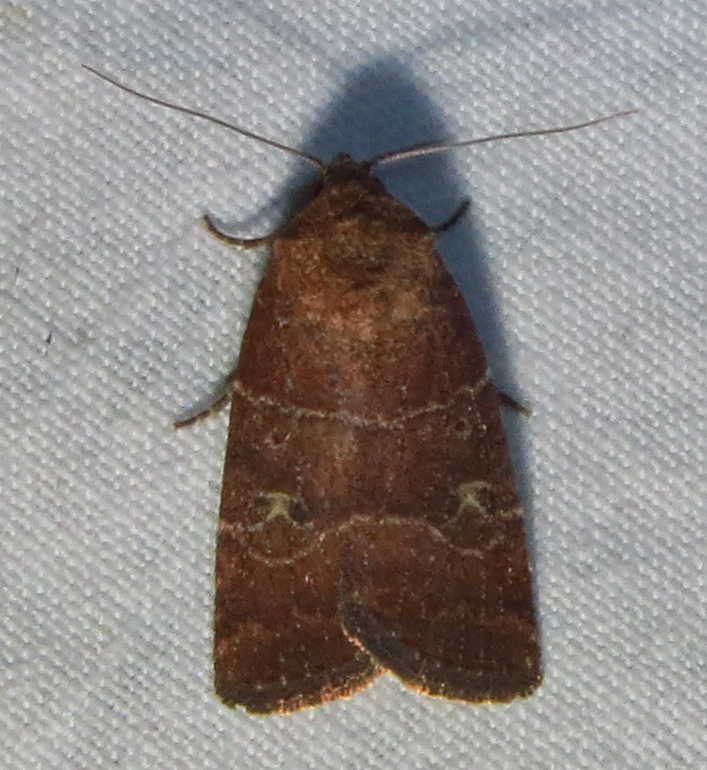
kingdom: Animalia
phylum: Arthropoda
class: Insecta
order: Lepidoptera
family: Noctuidae
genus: Elaphria
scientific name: Elaphria grata
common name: Grateful midget moth
